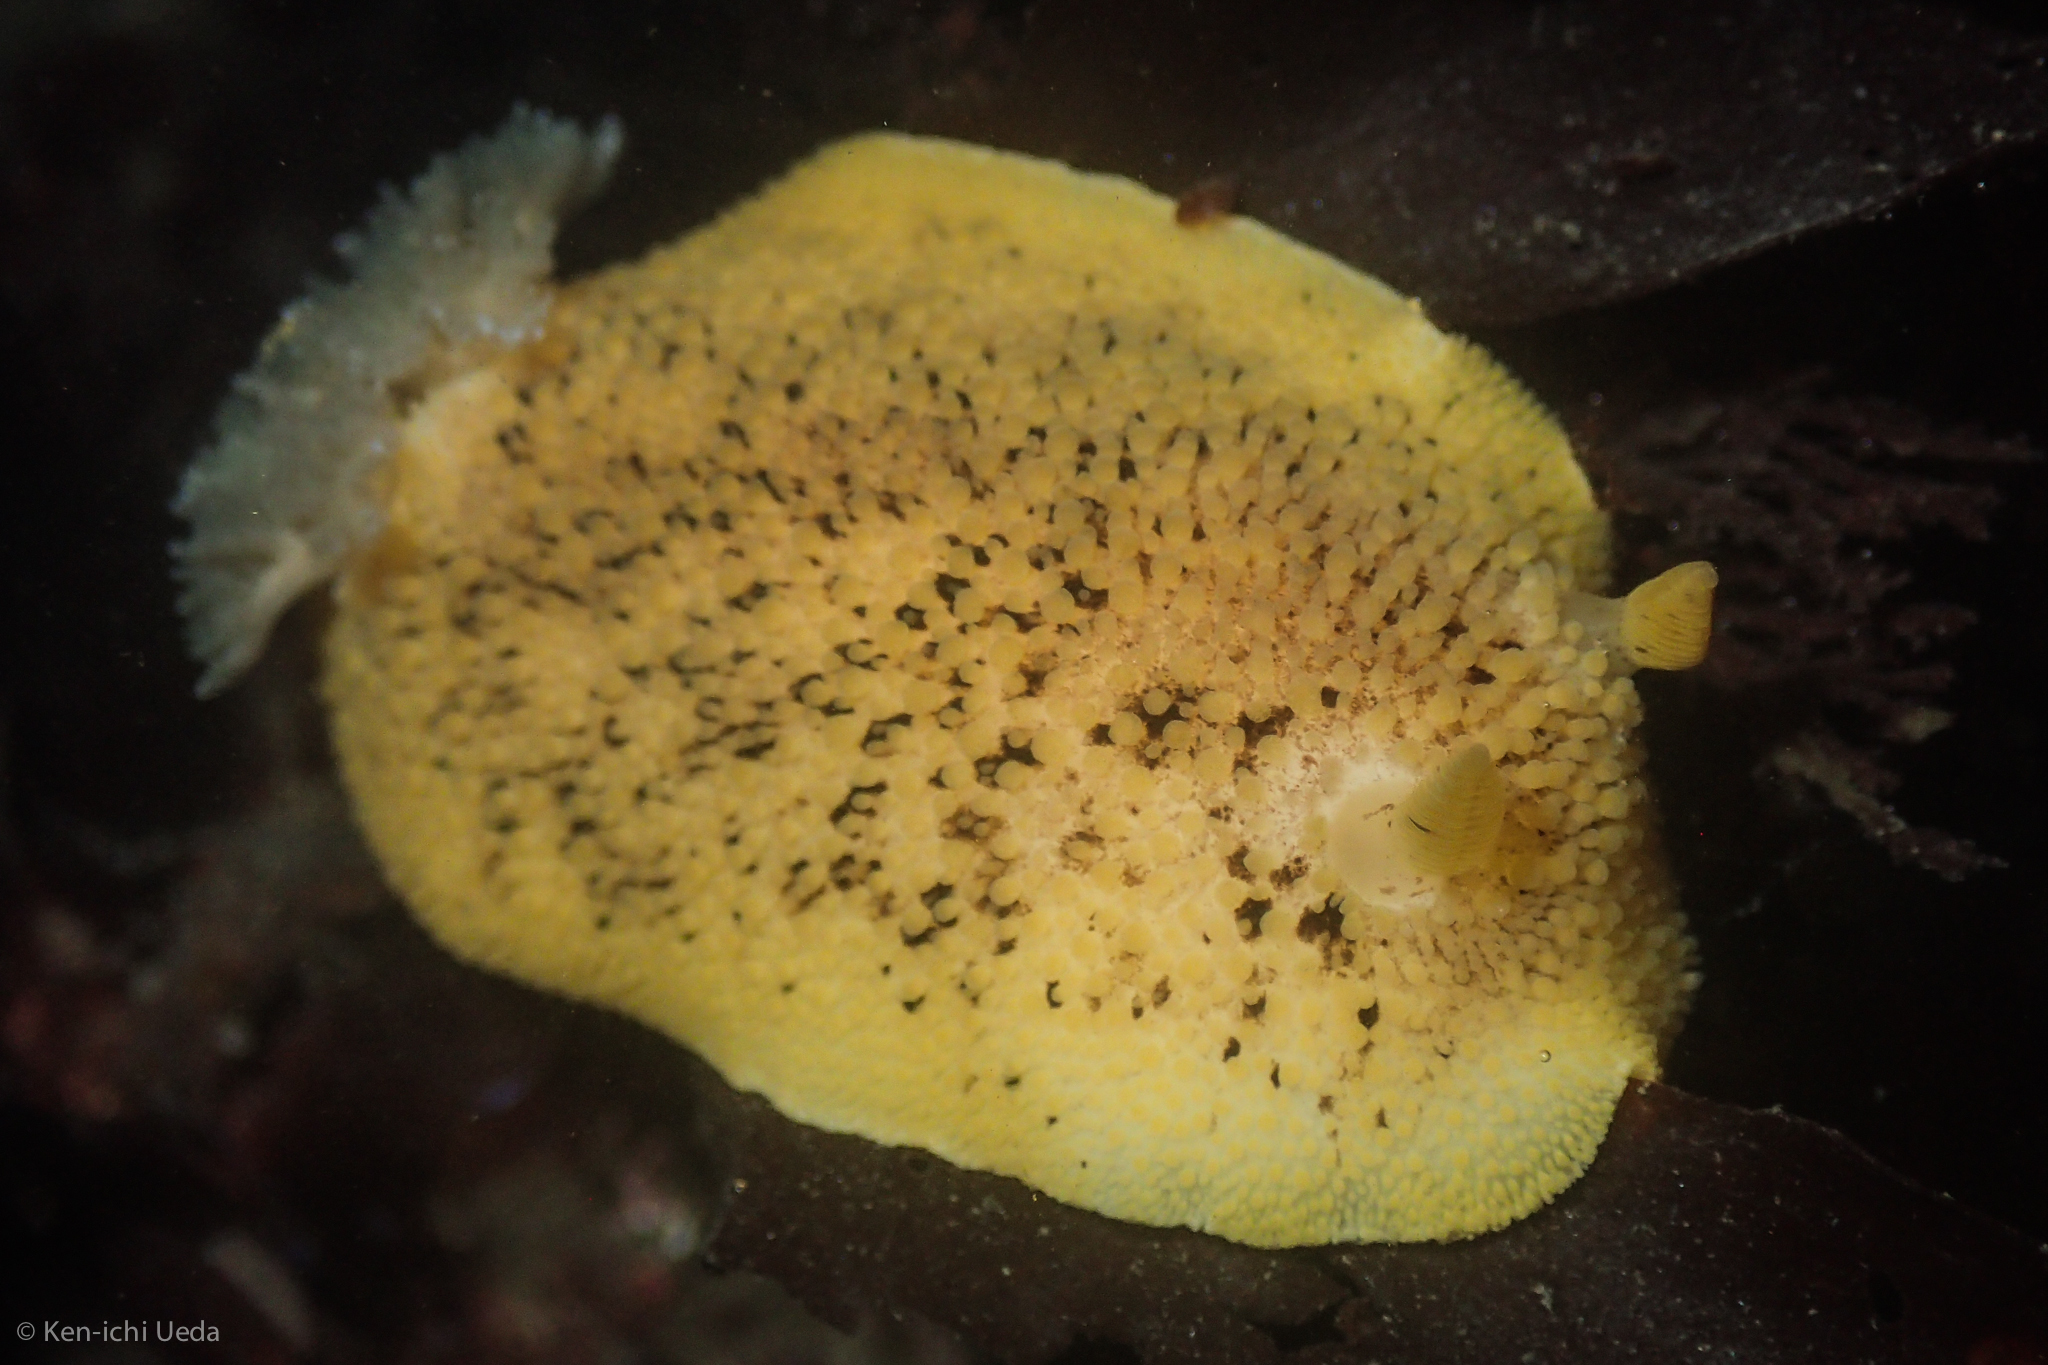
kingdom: Animalia
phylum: Mollusca
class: Gastropoda
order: Nudibranchia
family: Discodorididae
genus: Peltodoris
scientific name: Peltodoris nobilis
